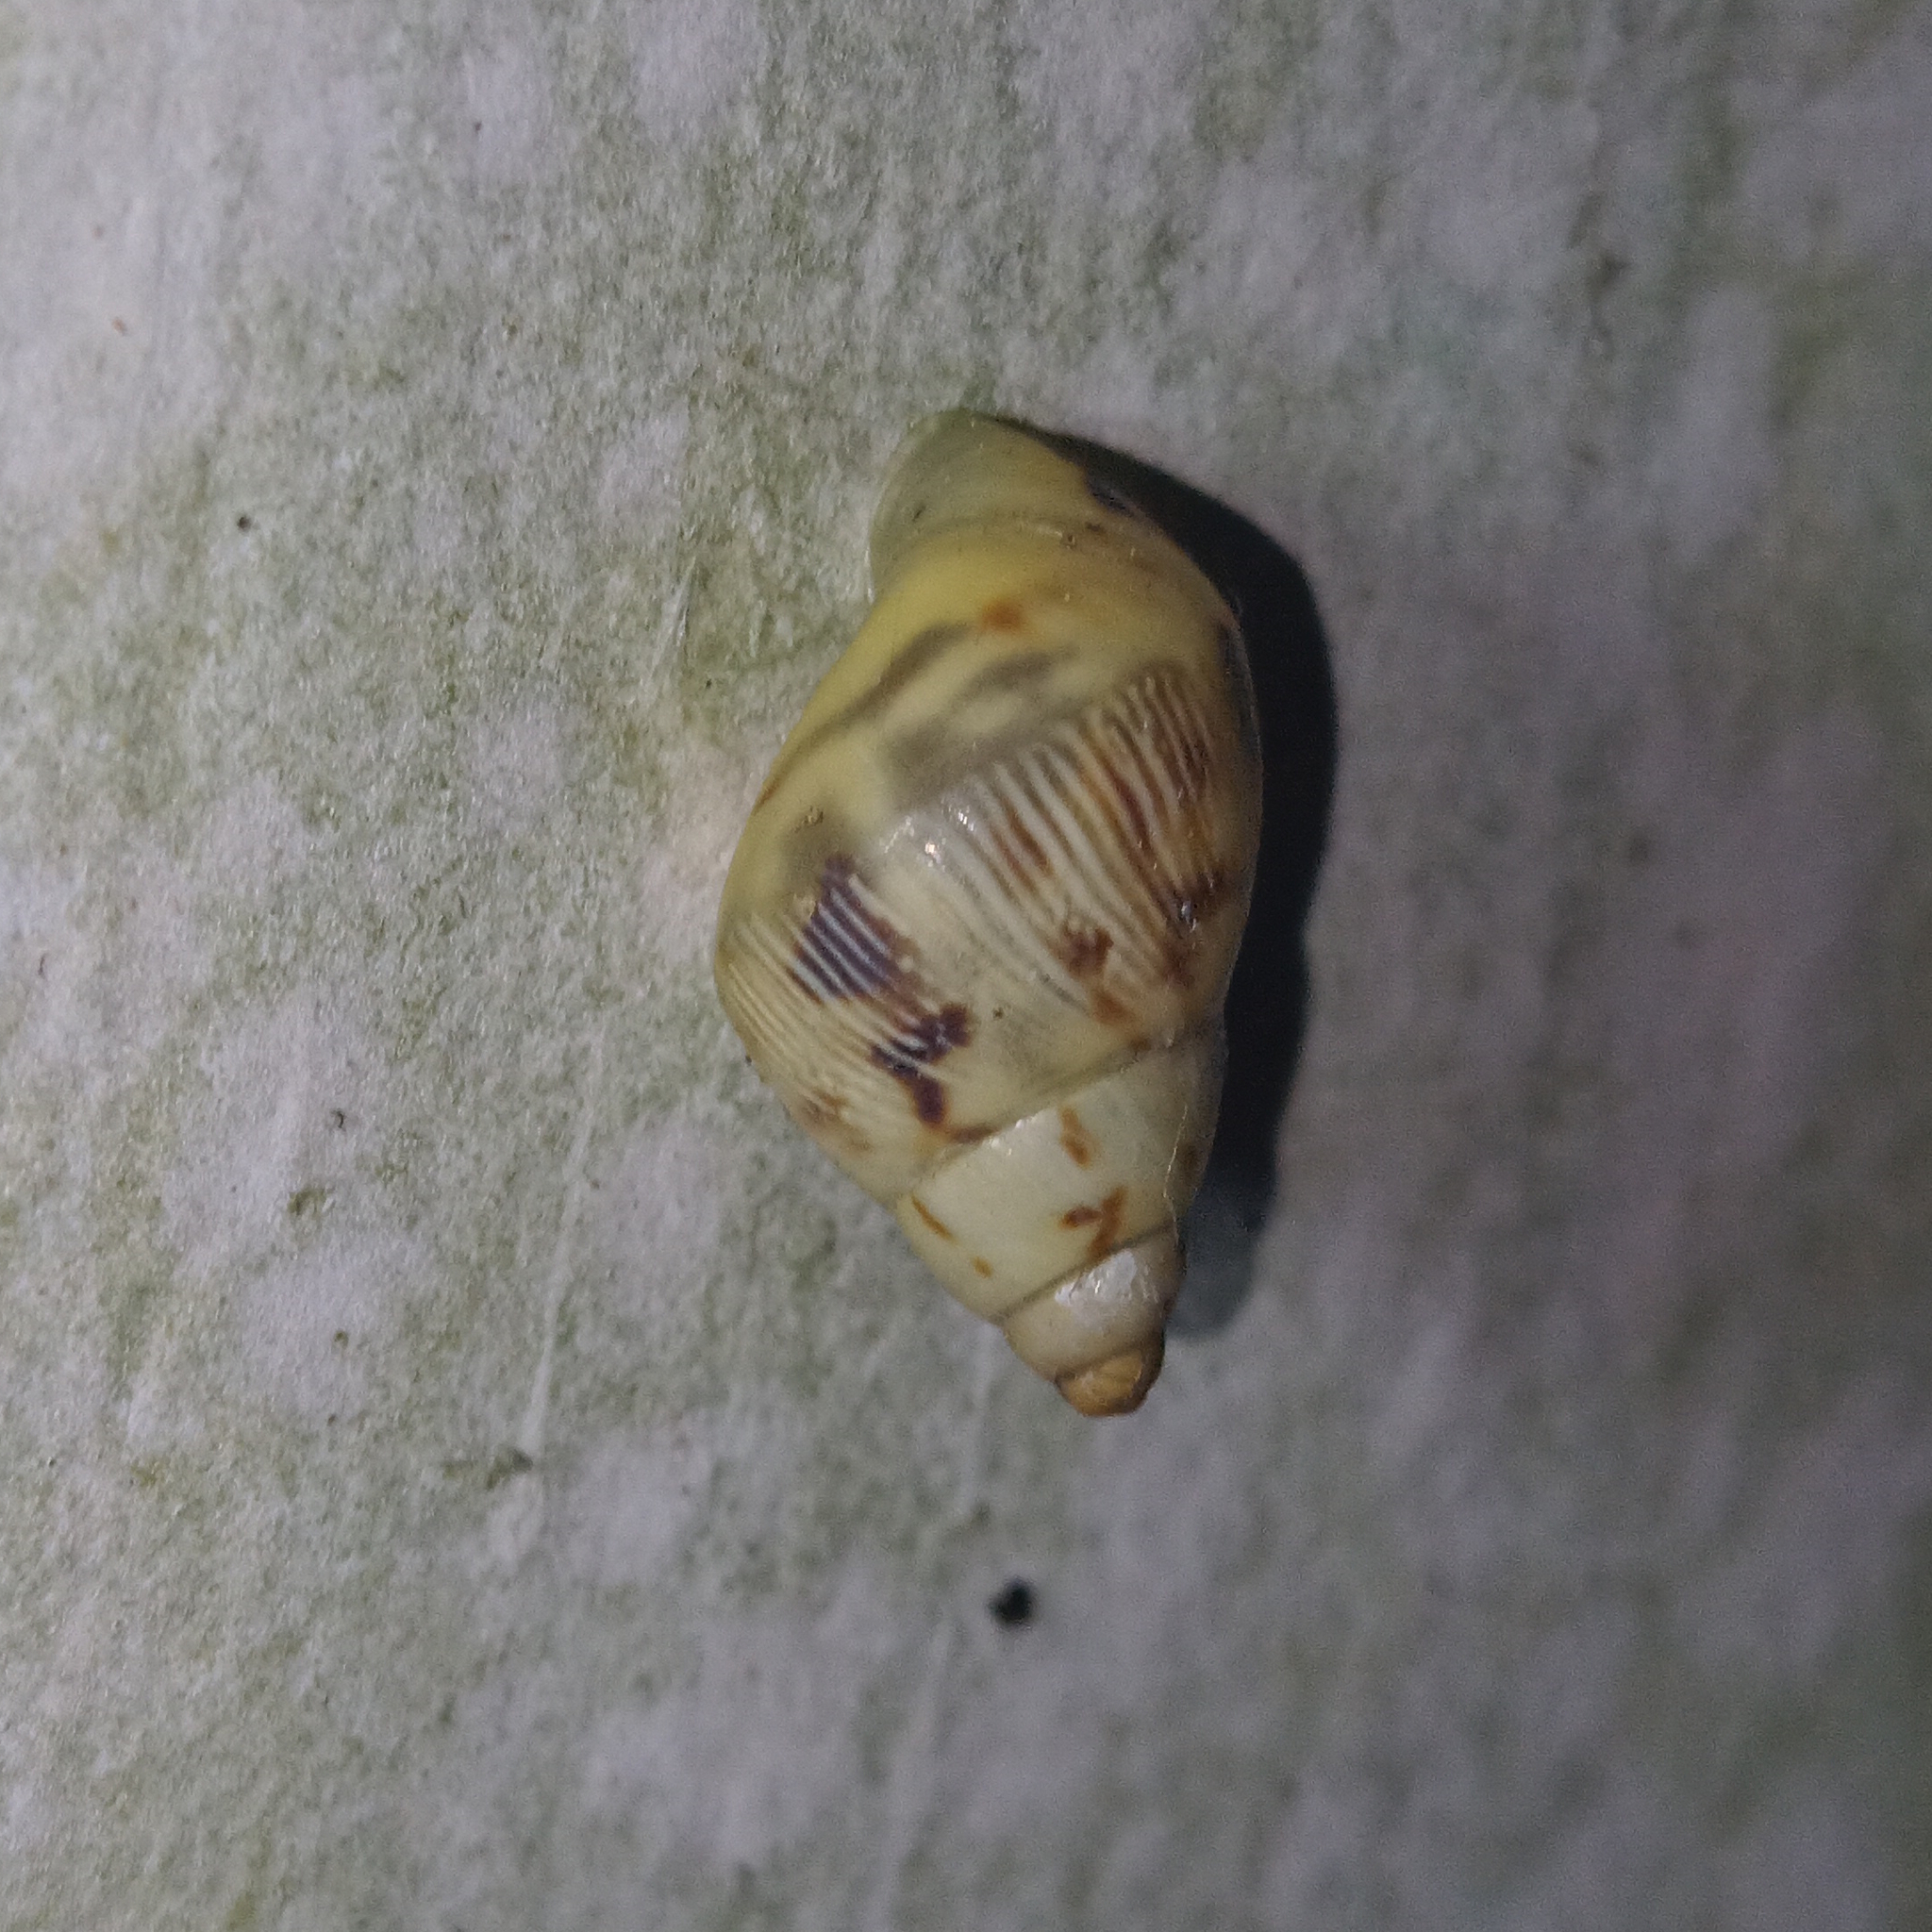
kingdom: Animalia
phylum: Mollusca
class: Gastropoda
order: Stylommatophora
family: Bulimulidae
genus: Drymaeus
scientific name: Drymaeus papyraceus
